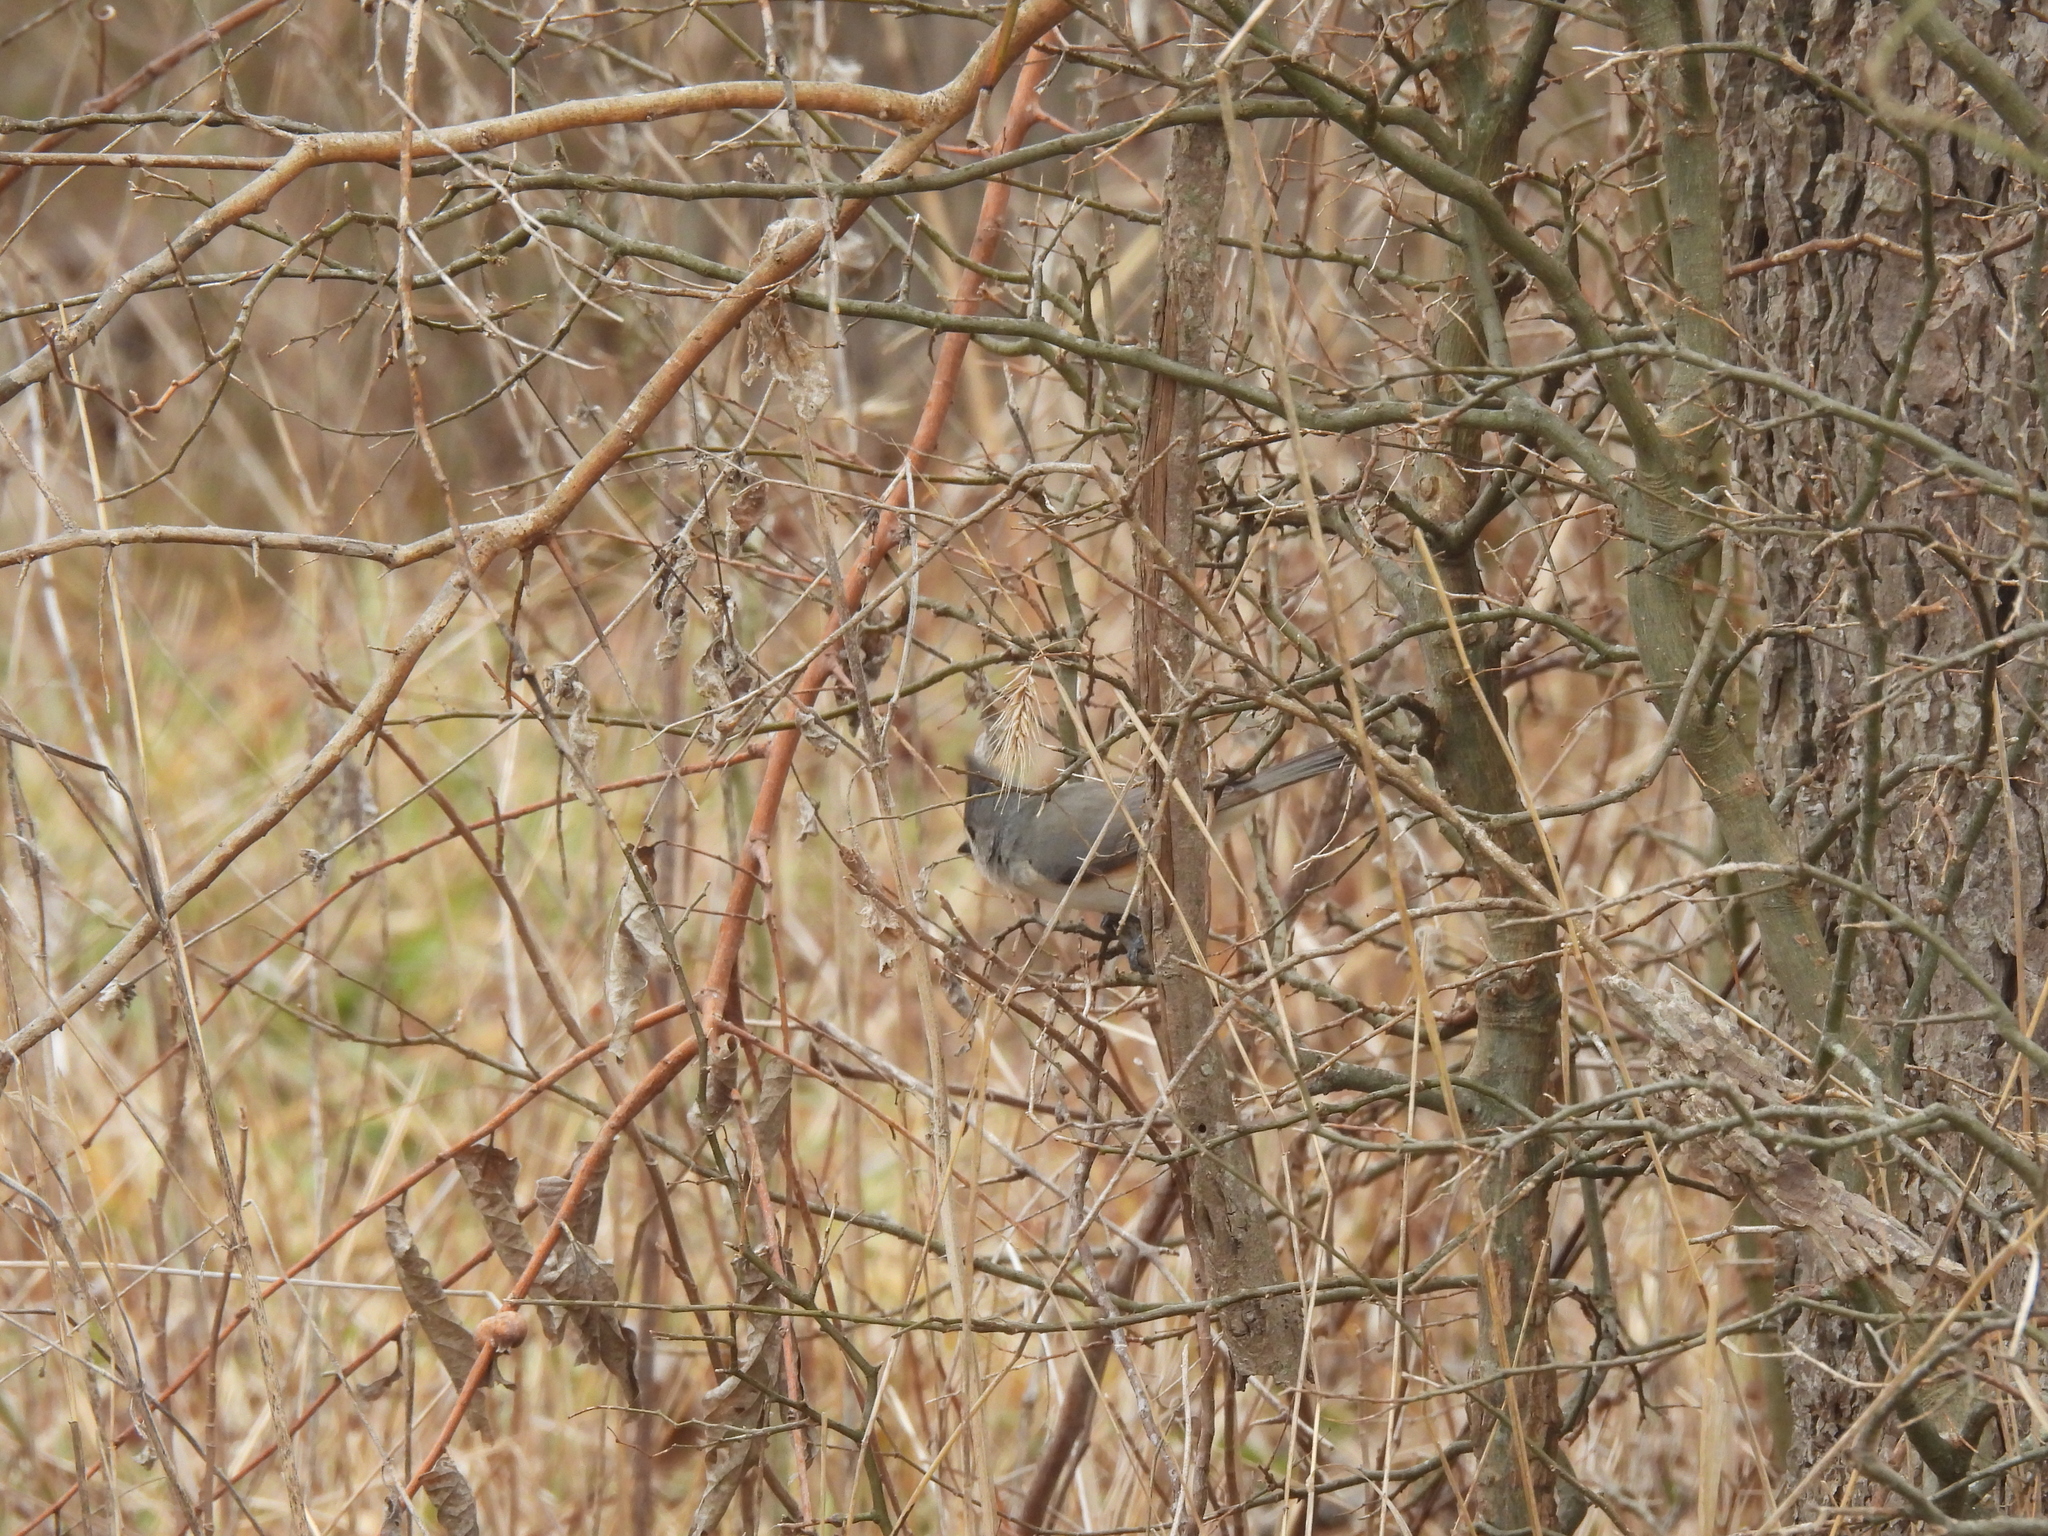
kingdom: Animalia
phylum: Chordata
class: Aves
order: Passeriformes
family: Paridae
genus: Baeolophus
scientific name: Baeolophus atricristatus
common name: Black-crested titmouse
